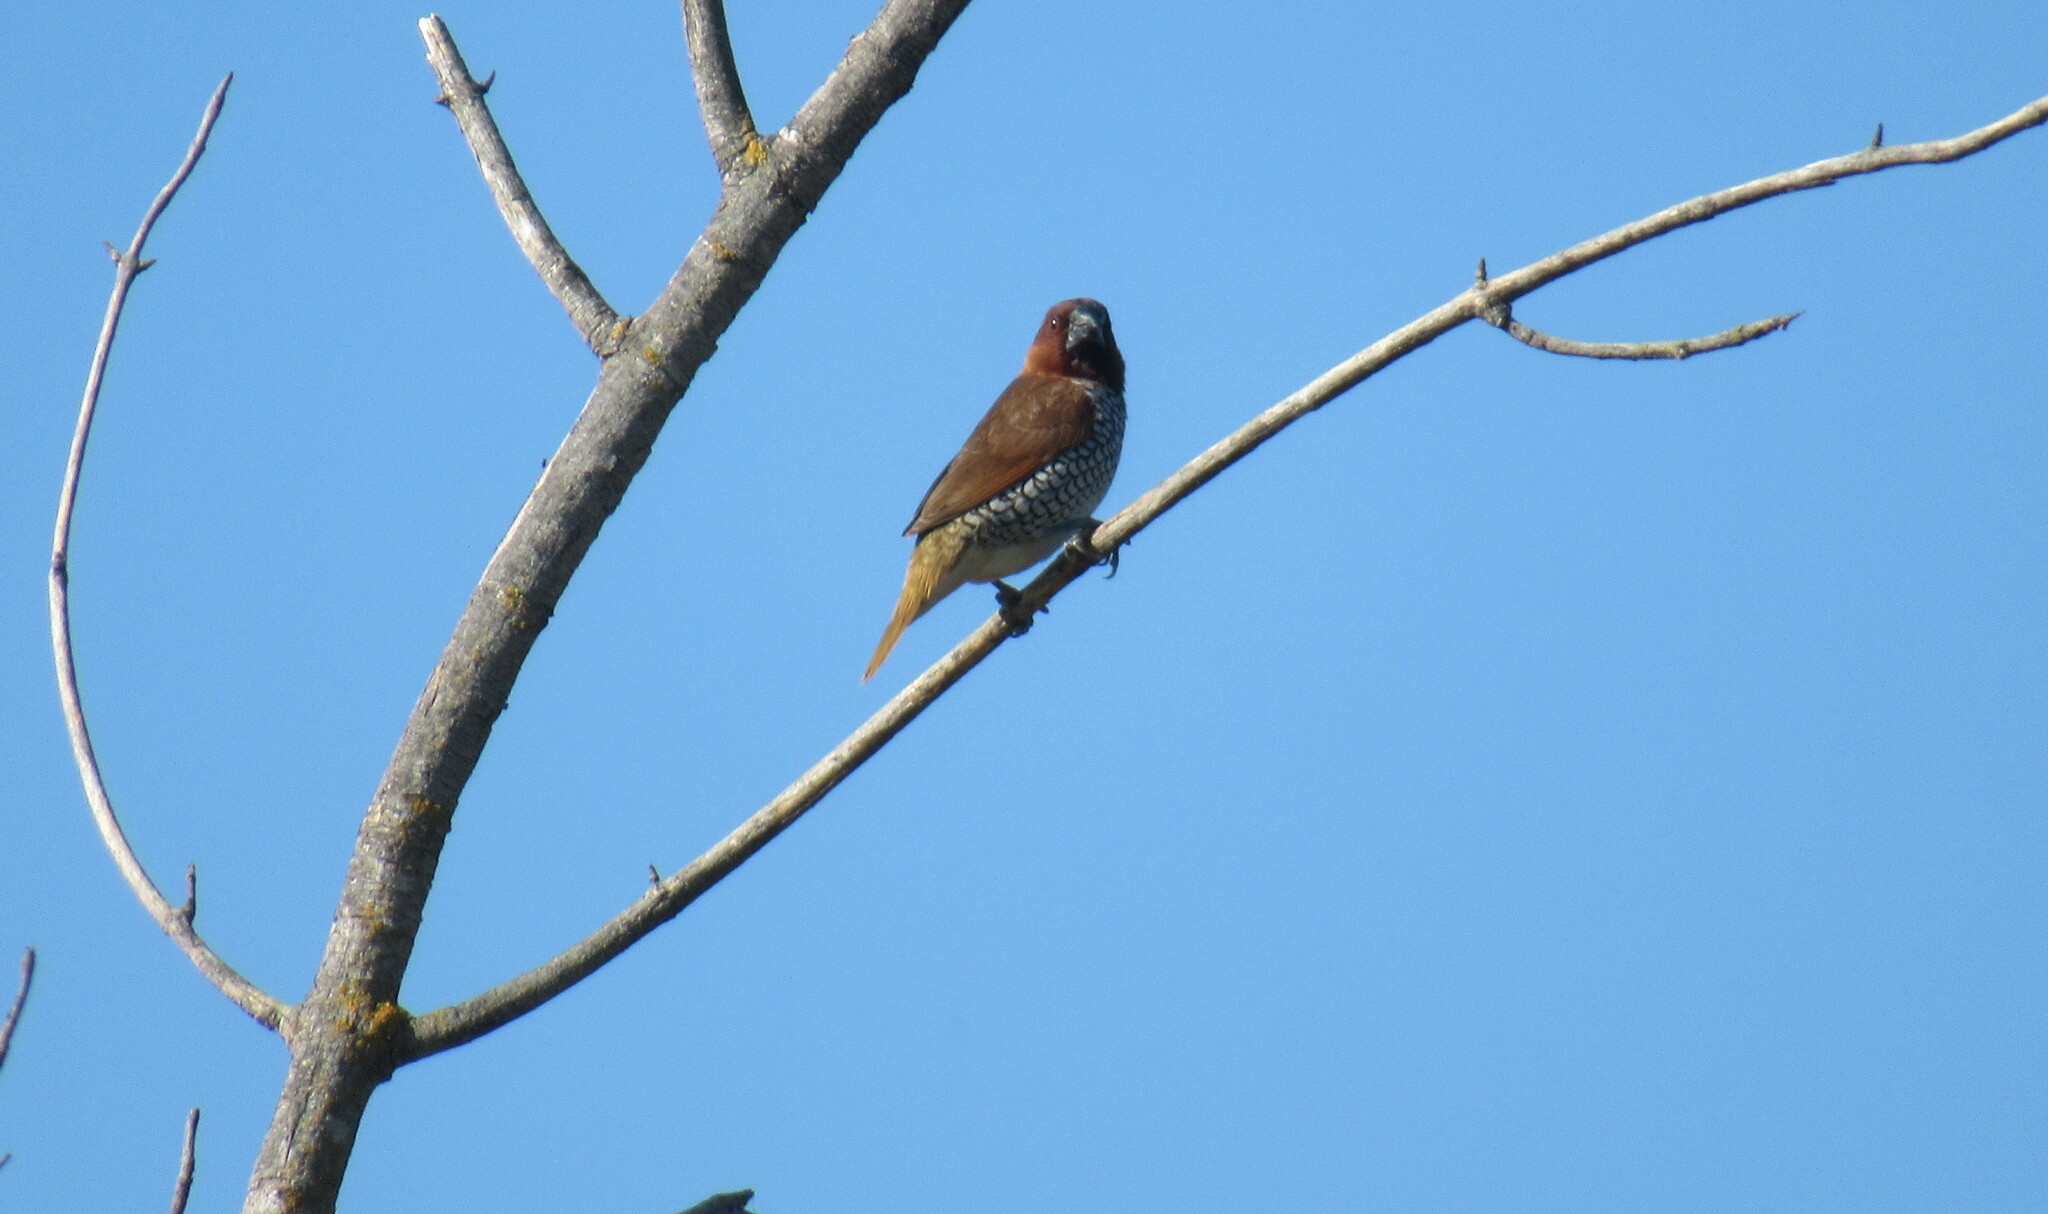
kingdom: Animalia
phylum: Chordata
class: Aves
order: Passeriformes
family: Estrildidae
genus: Lonchura
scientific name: Lonchura punctulata
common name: Scaly-breasted munia
